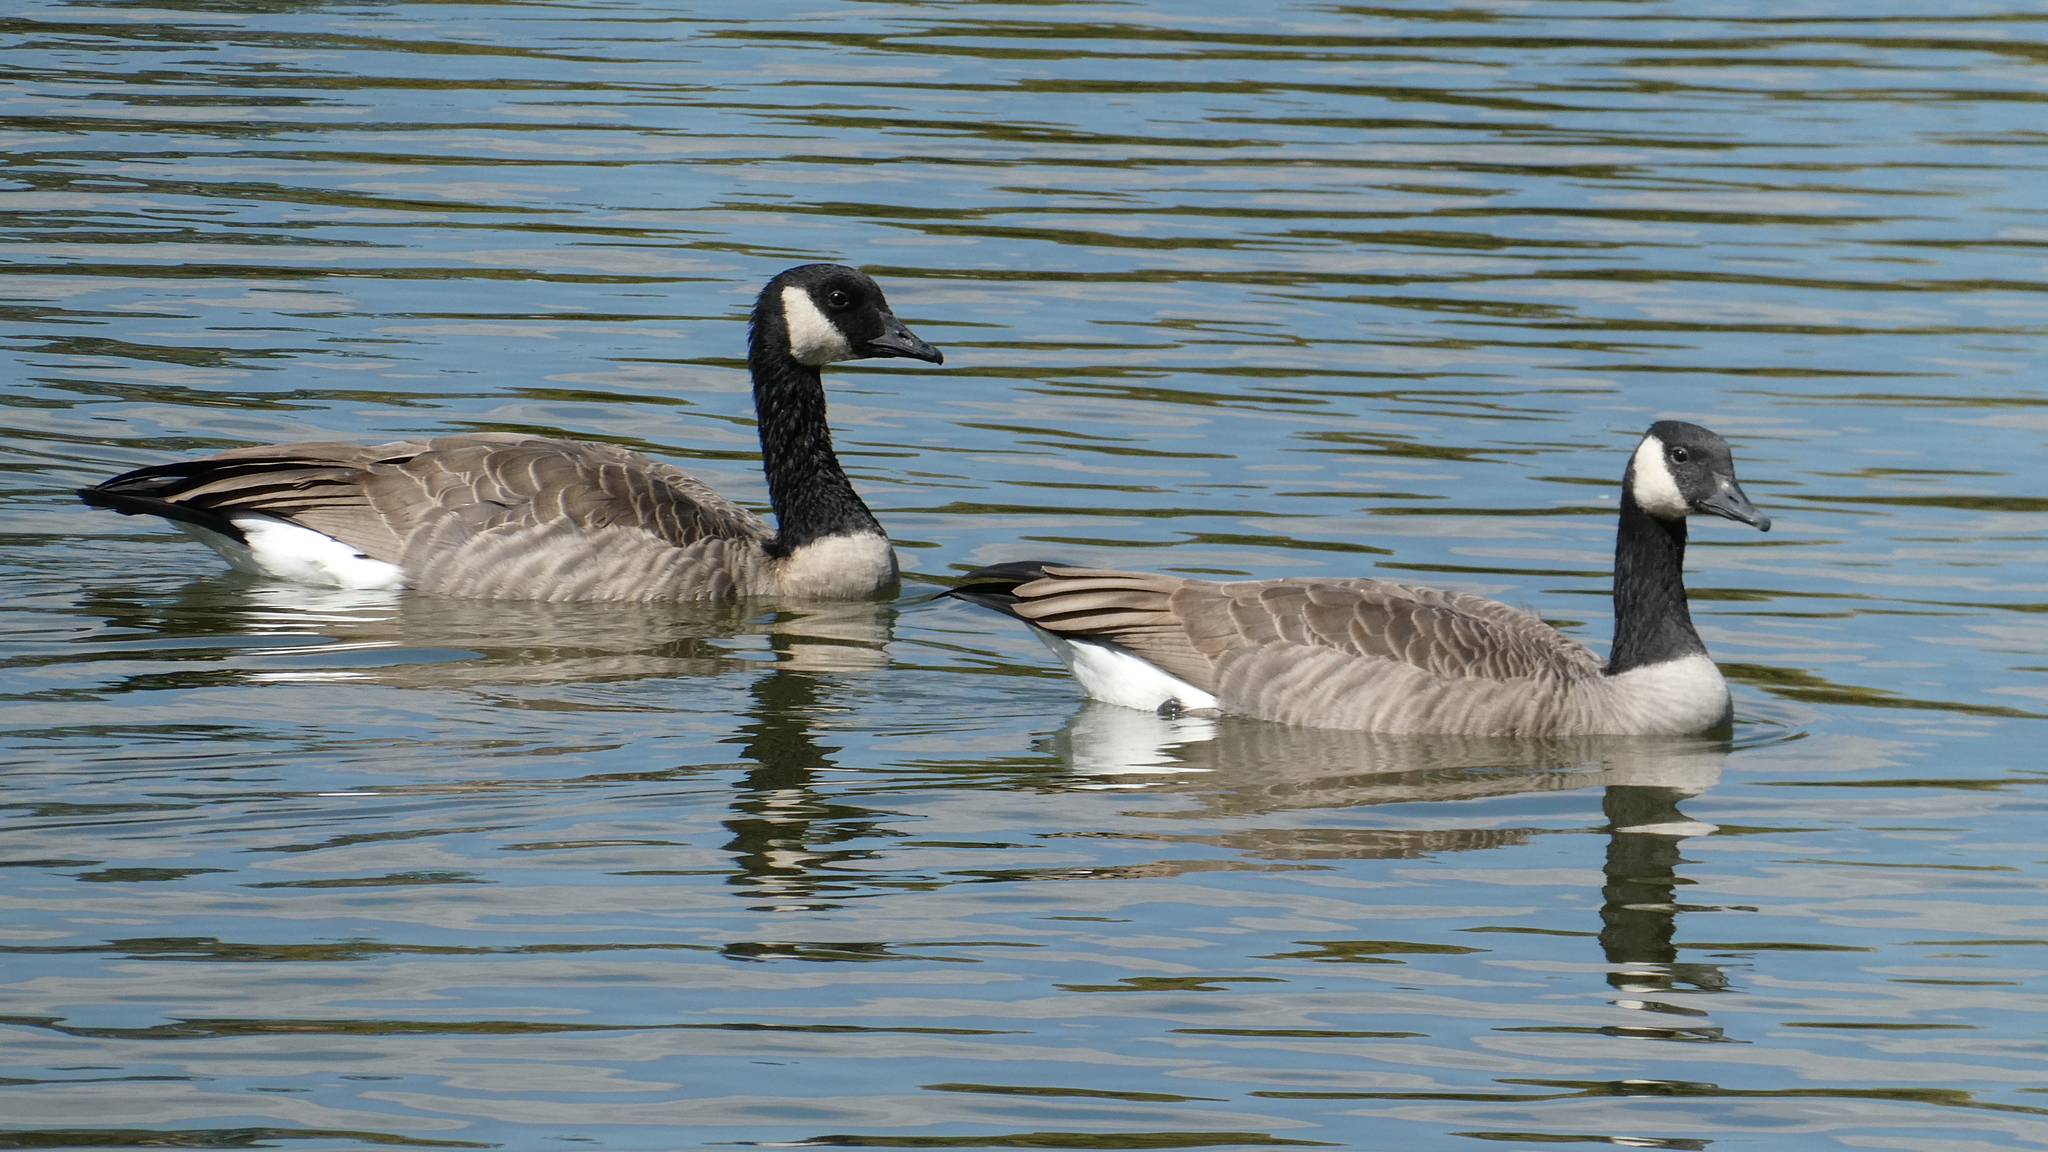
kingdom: Animalia
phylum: Chordata
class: Aves
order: Anseriformes
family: Anatidae
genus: Branta
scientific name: Branta canadensis
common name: Canada goose
